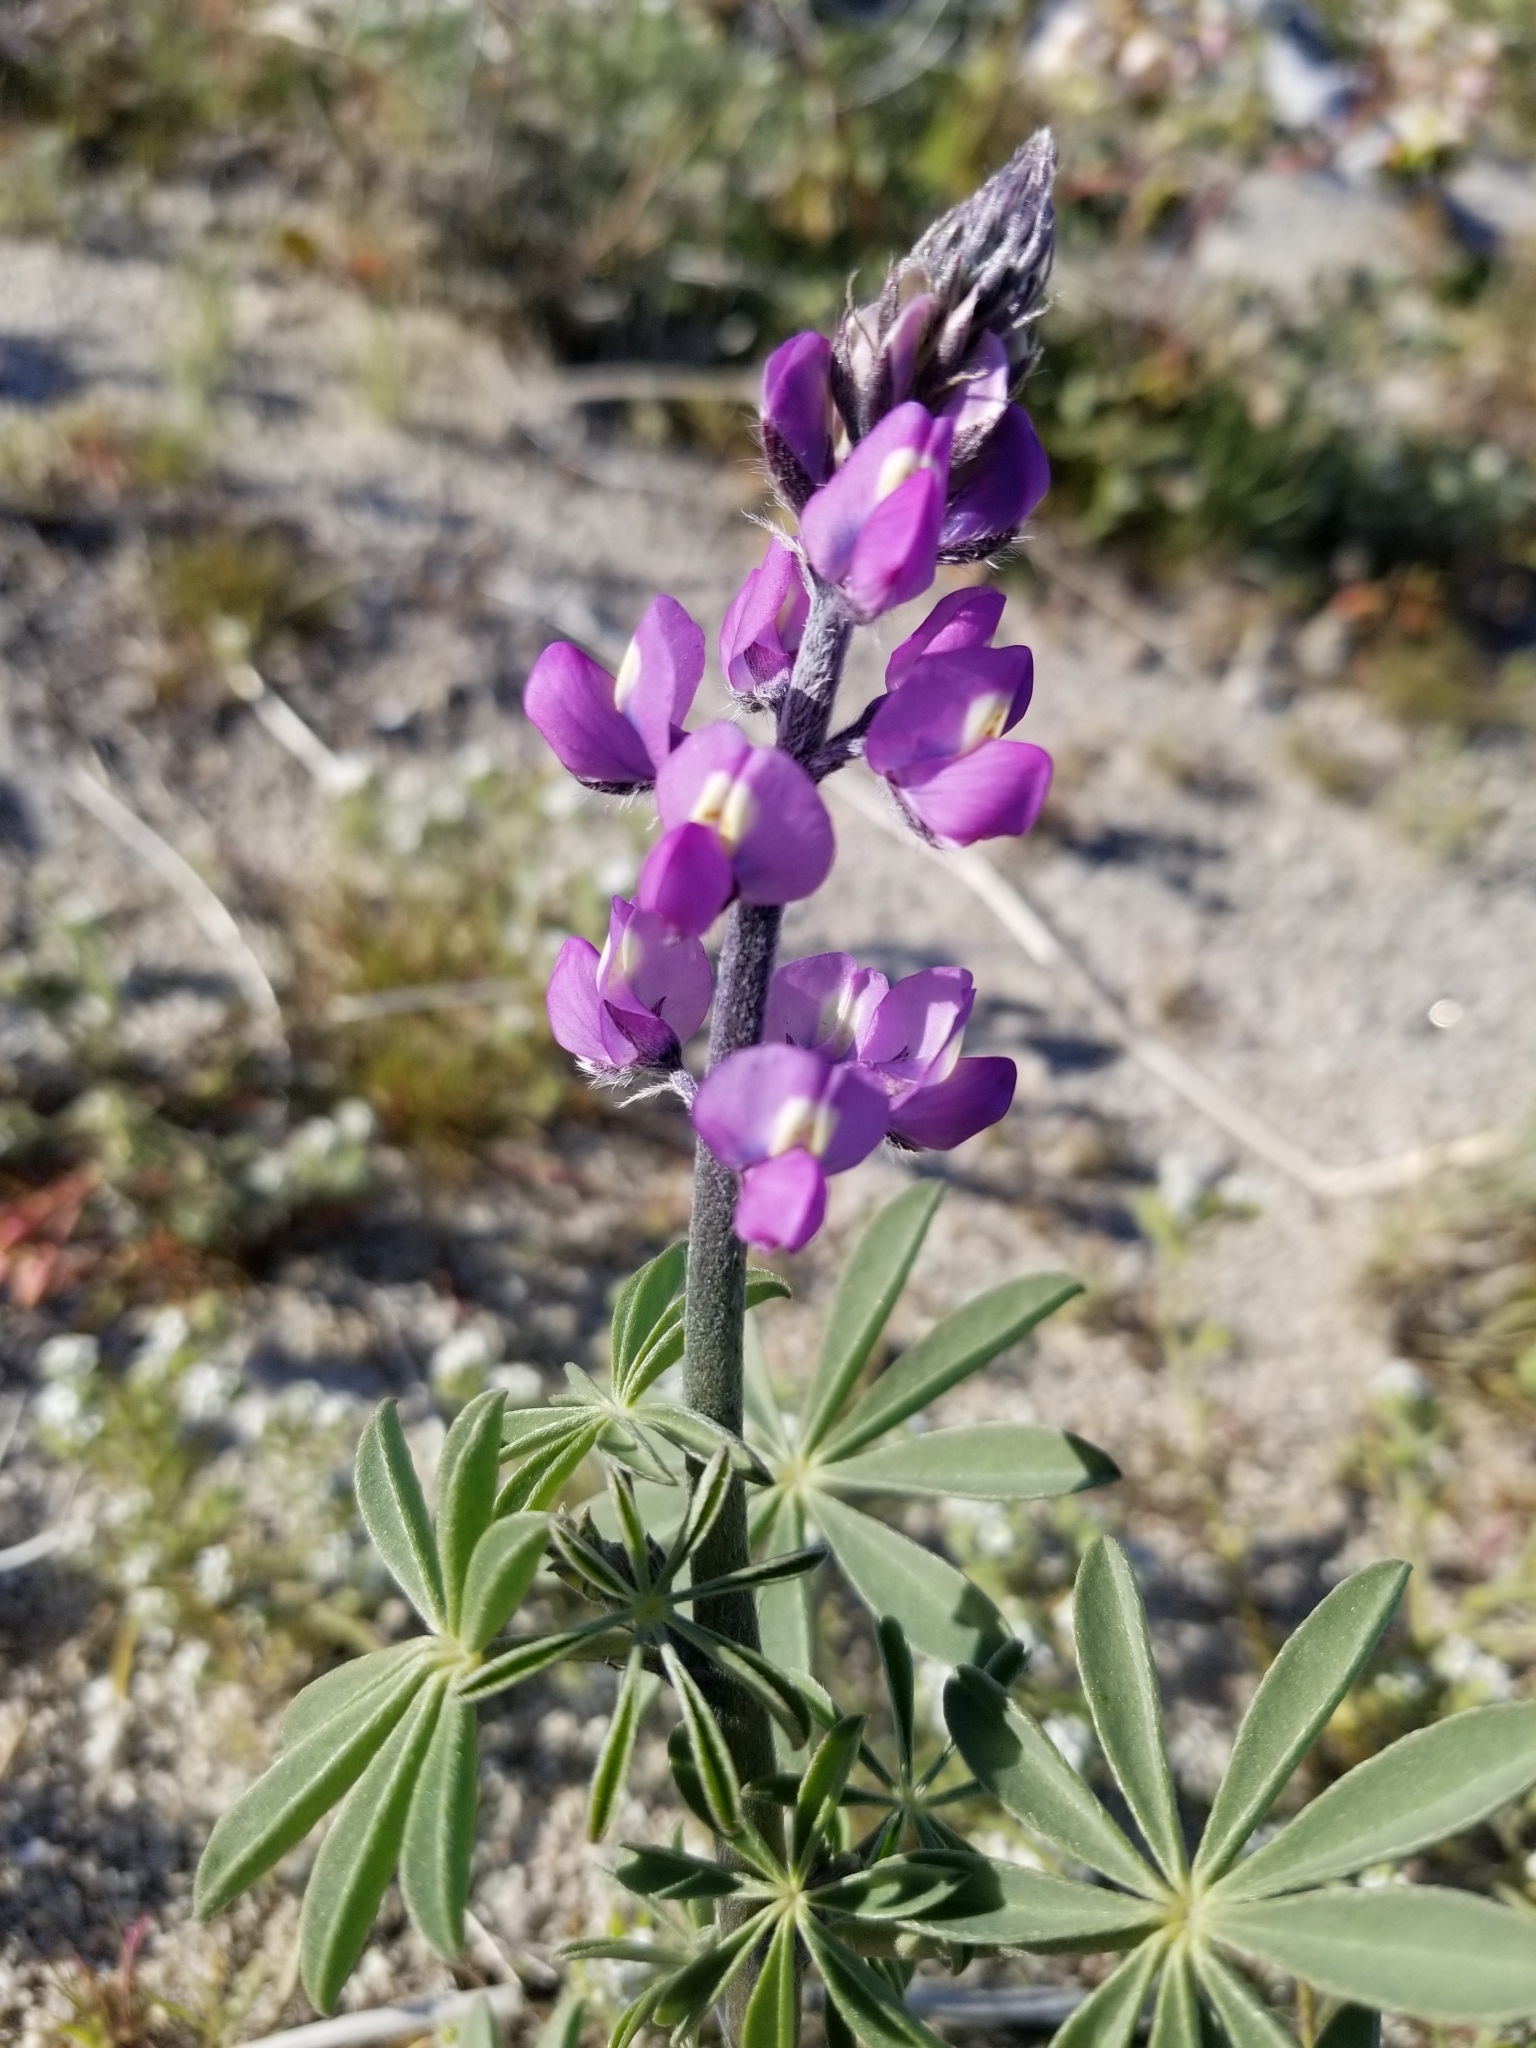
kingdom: Plantae
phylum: Tracheophyta
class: Magnoliopsida
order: Fabales
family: Fabaceae
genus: Lupinus
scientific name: Lupinus arizonicus
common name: Arizona lupine
